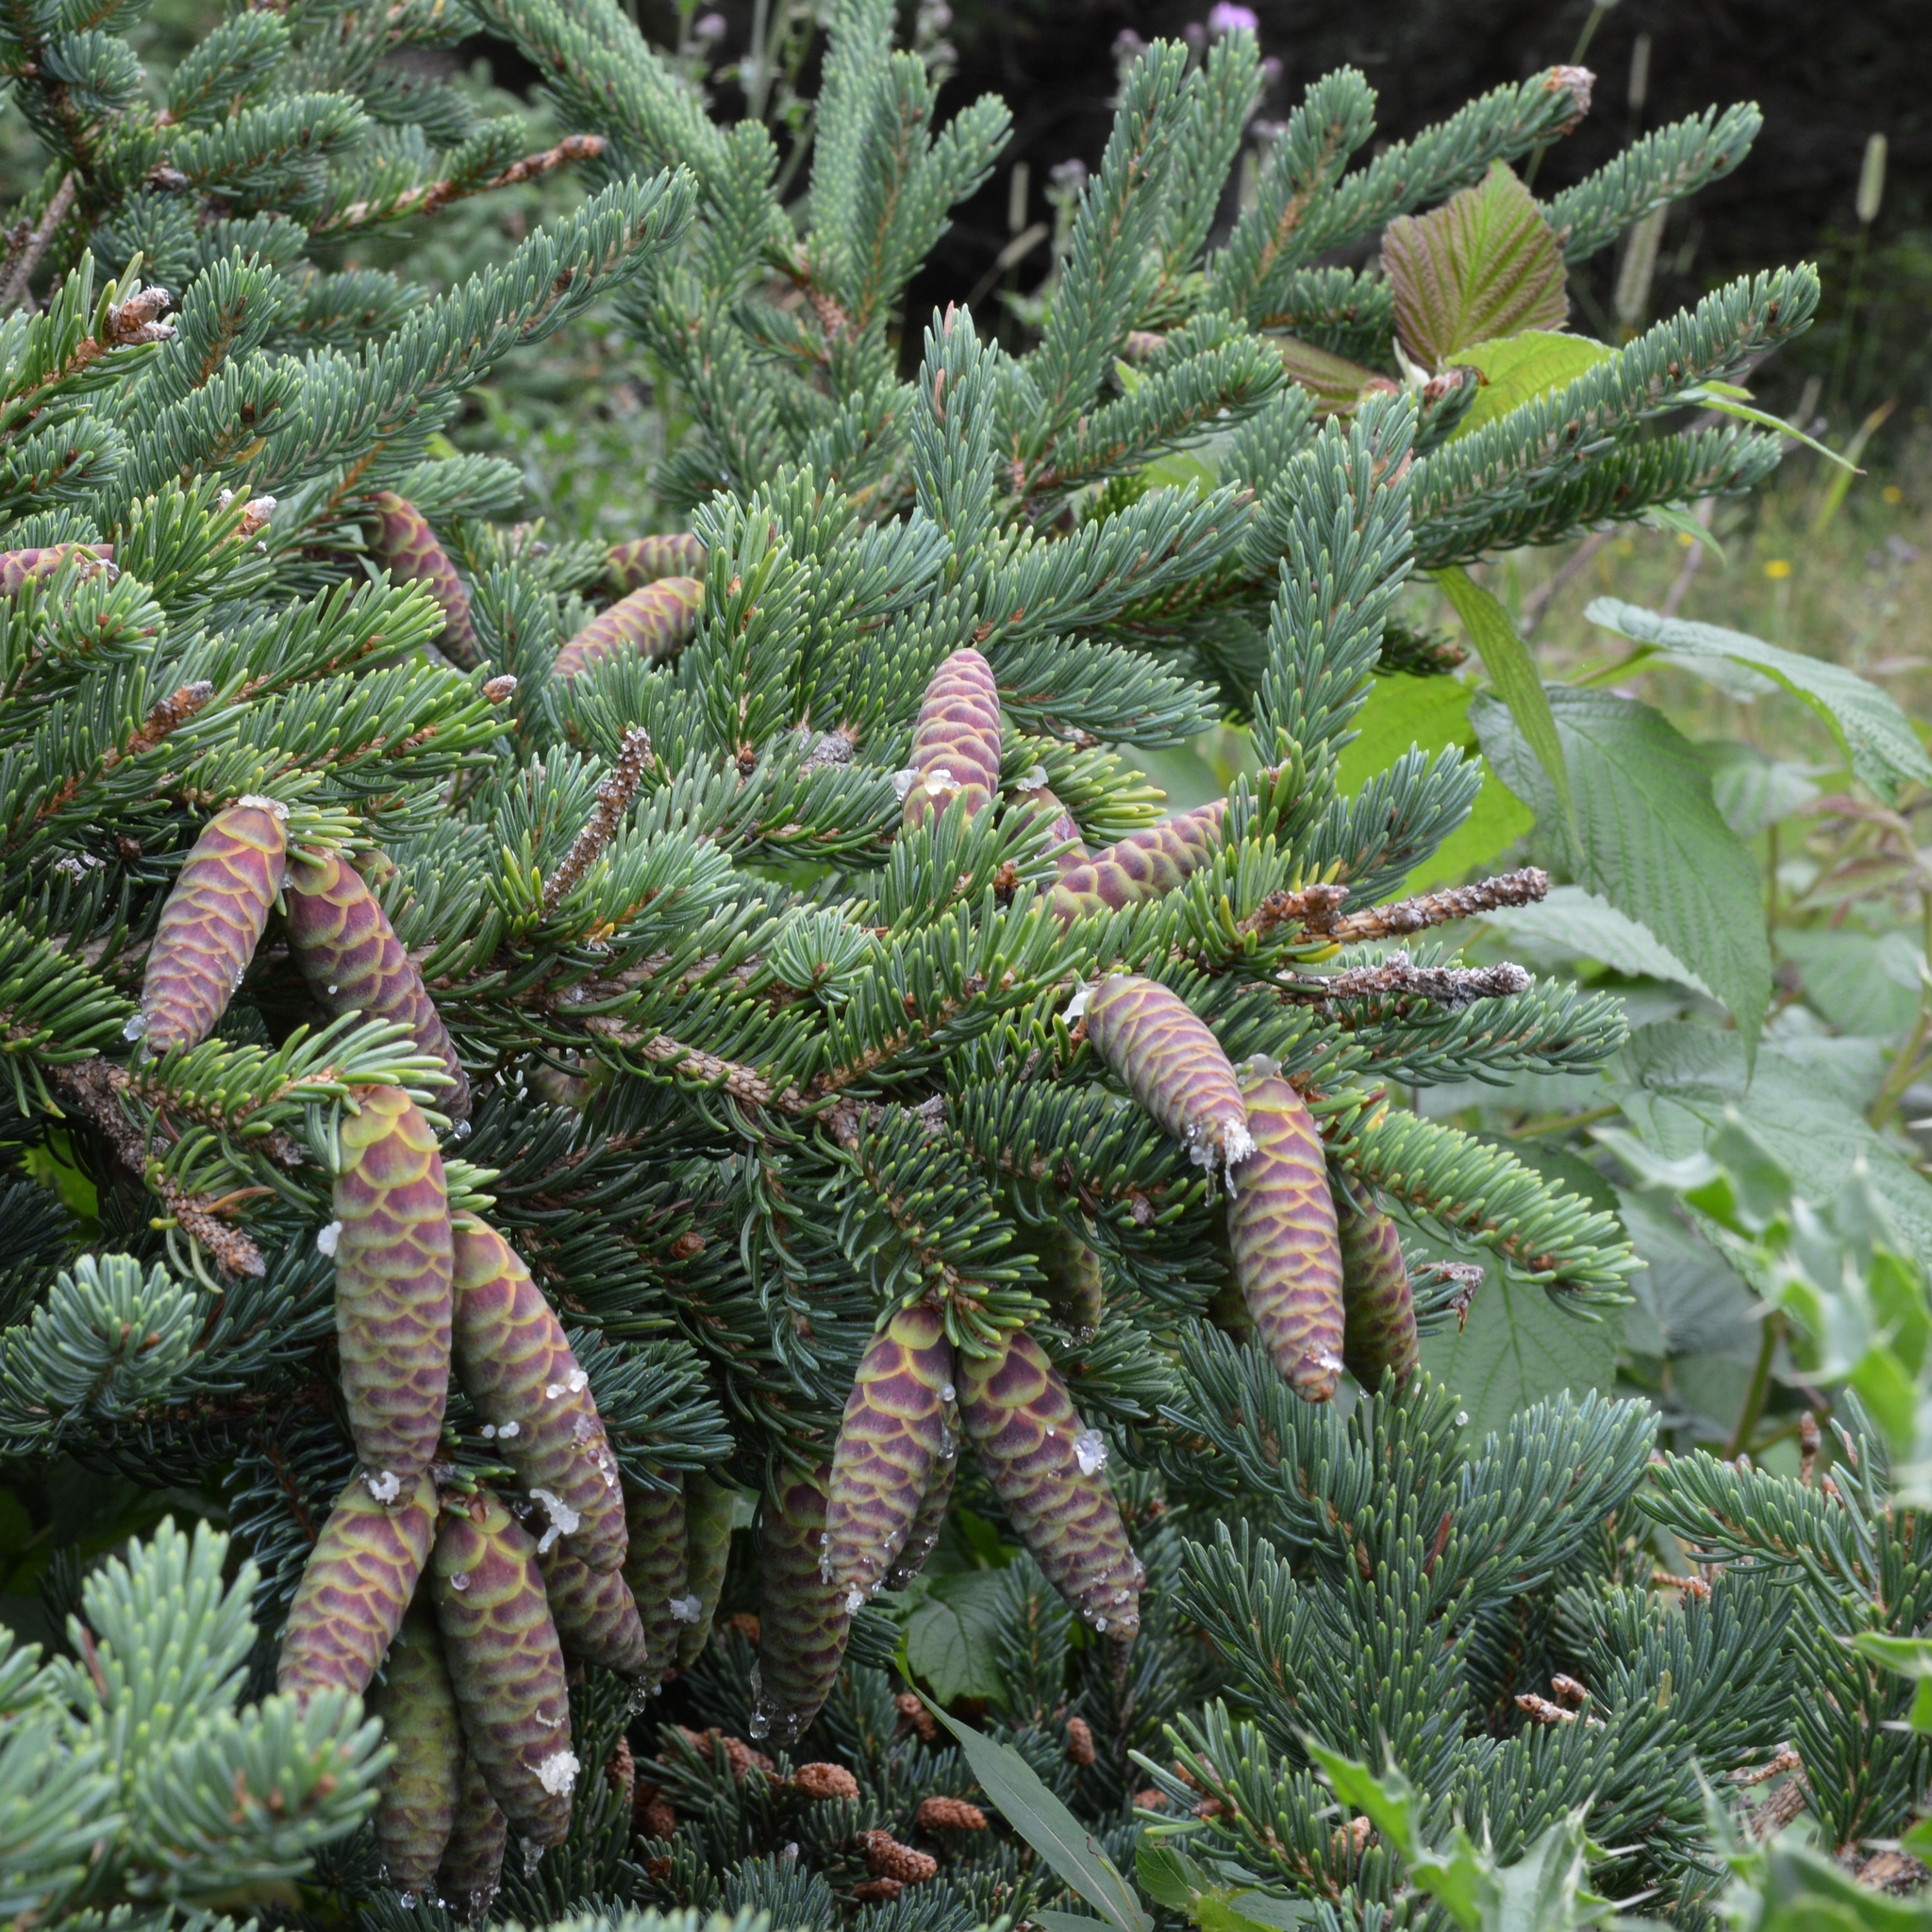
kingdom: Plantae
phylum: Tracheophyta
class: Pinopsida
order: Pinales
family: Pinaceae
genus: Picea
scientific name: Picea glauca
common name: White spruce
